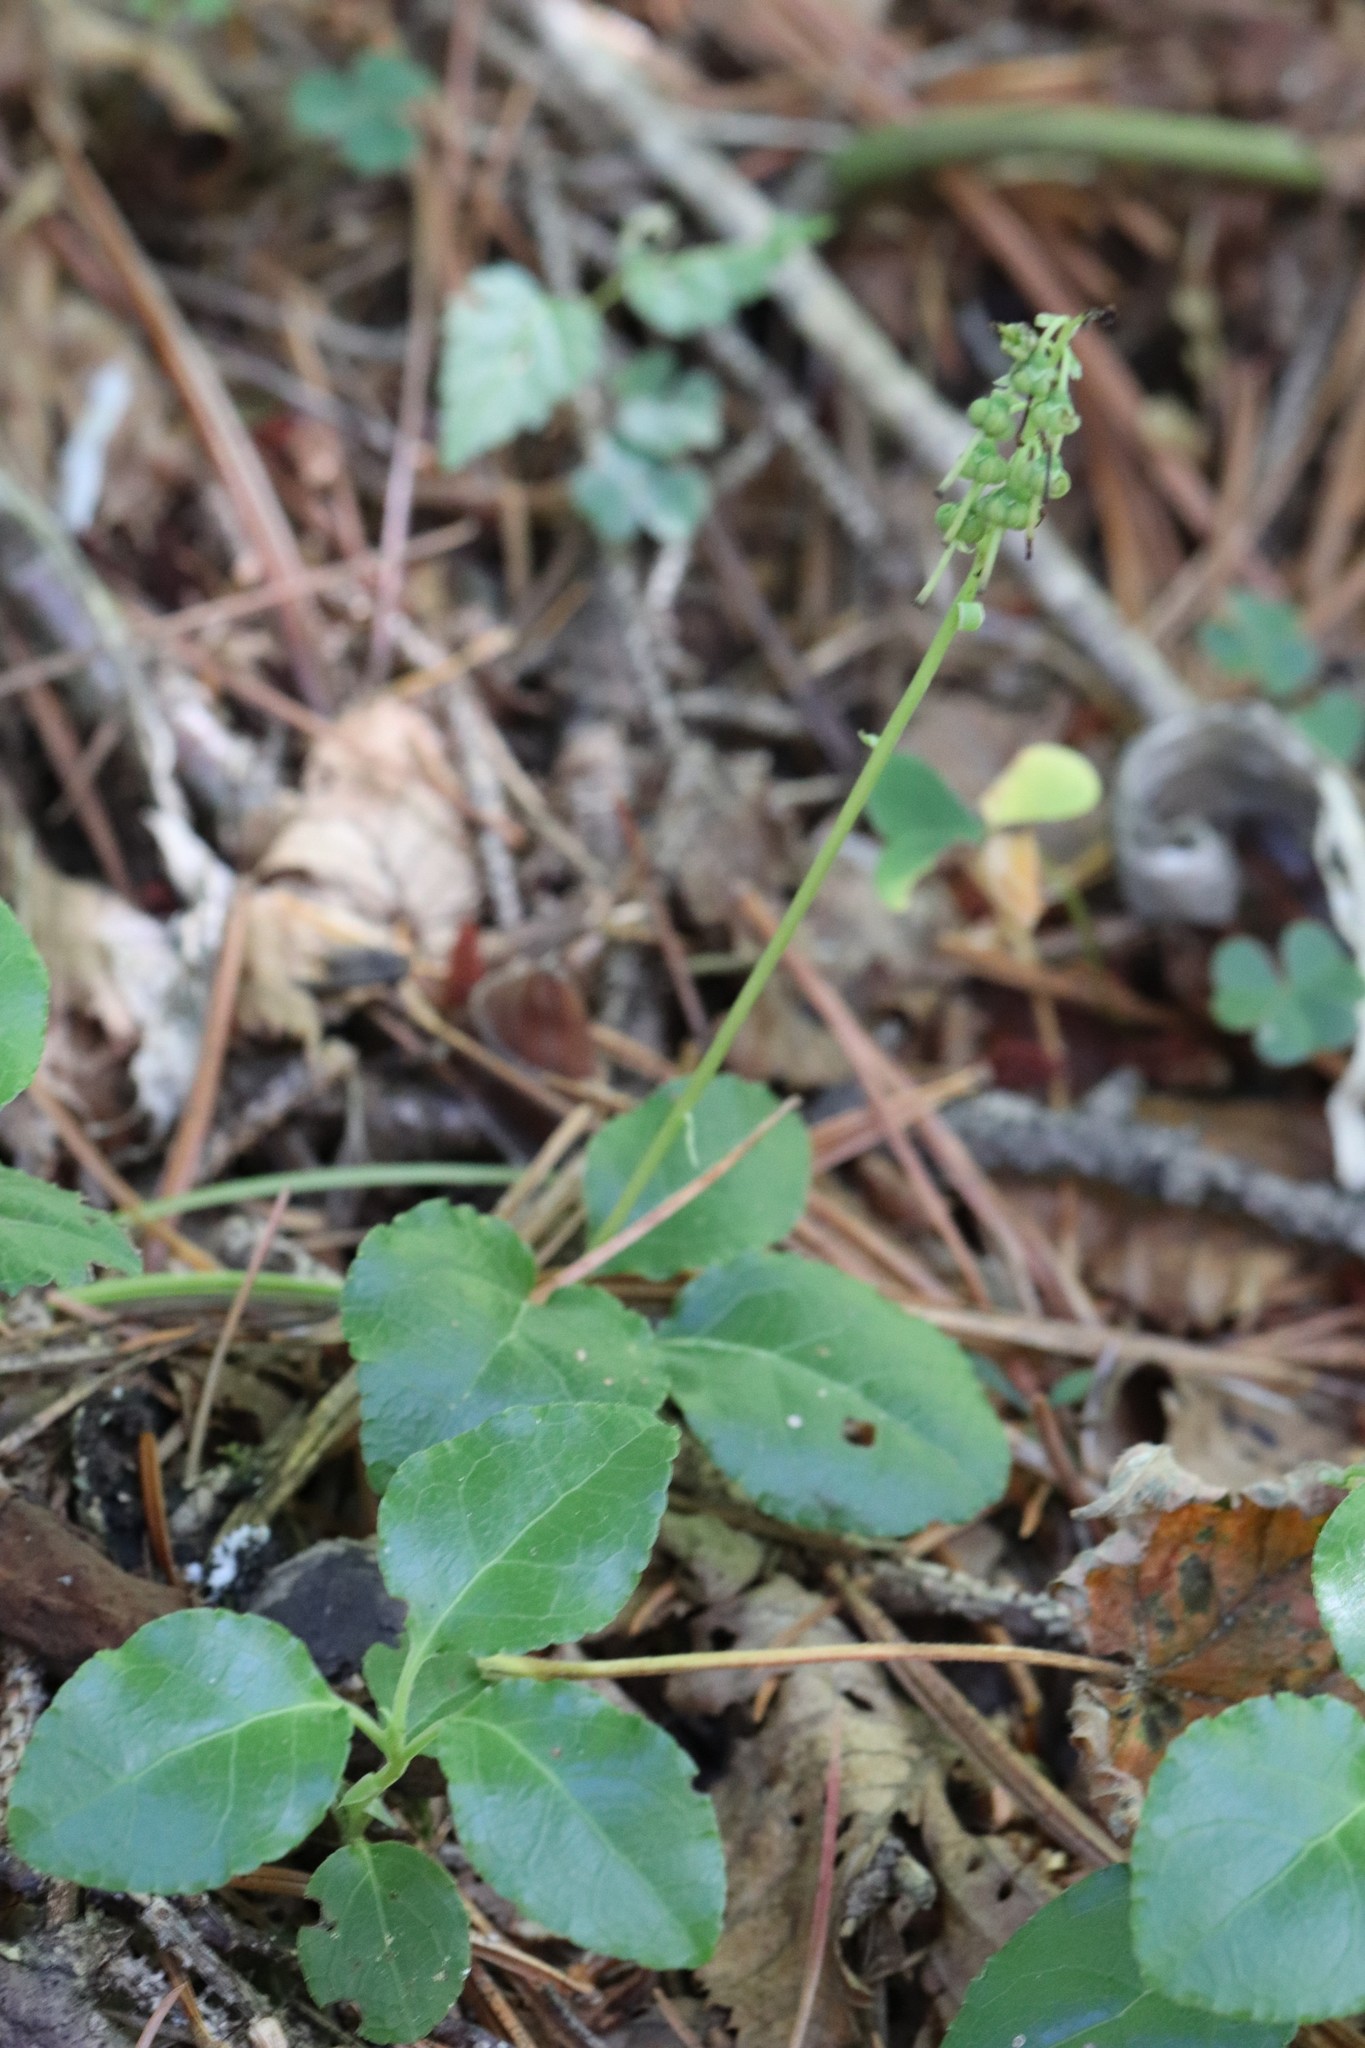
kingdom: Plantae
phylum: Tracheophyta
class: Magnoliopsida
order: Ericales
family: Ericaceae
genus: Orthilia
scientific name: Orthilia secunda
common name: One-sided orthilia
